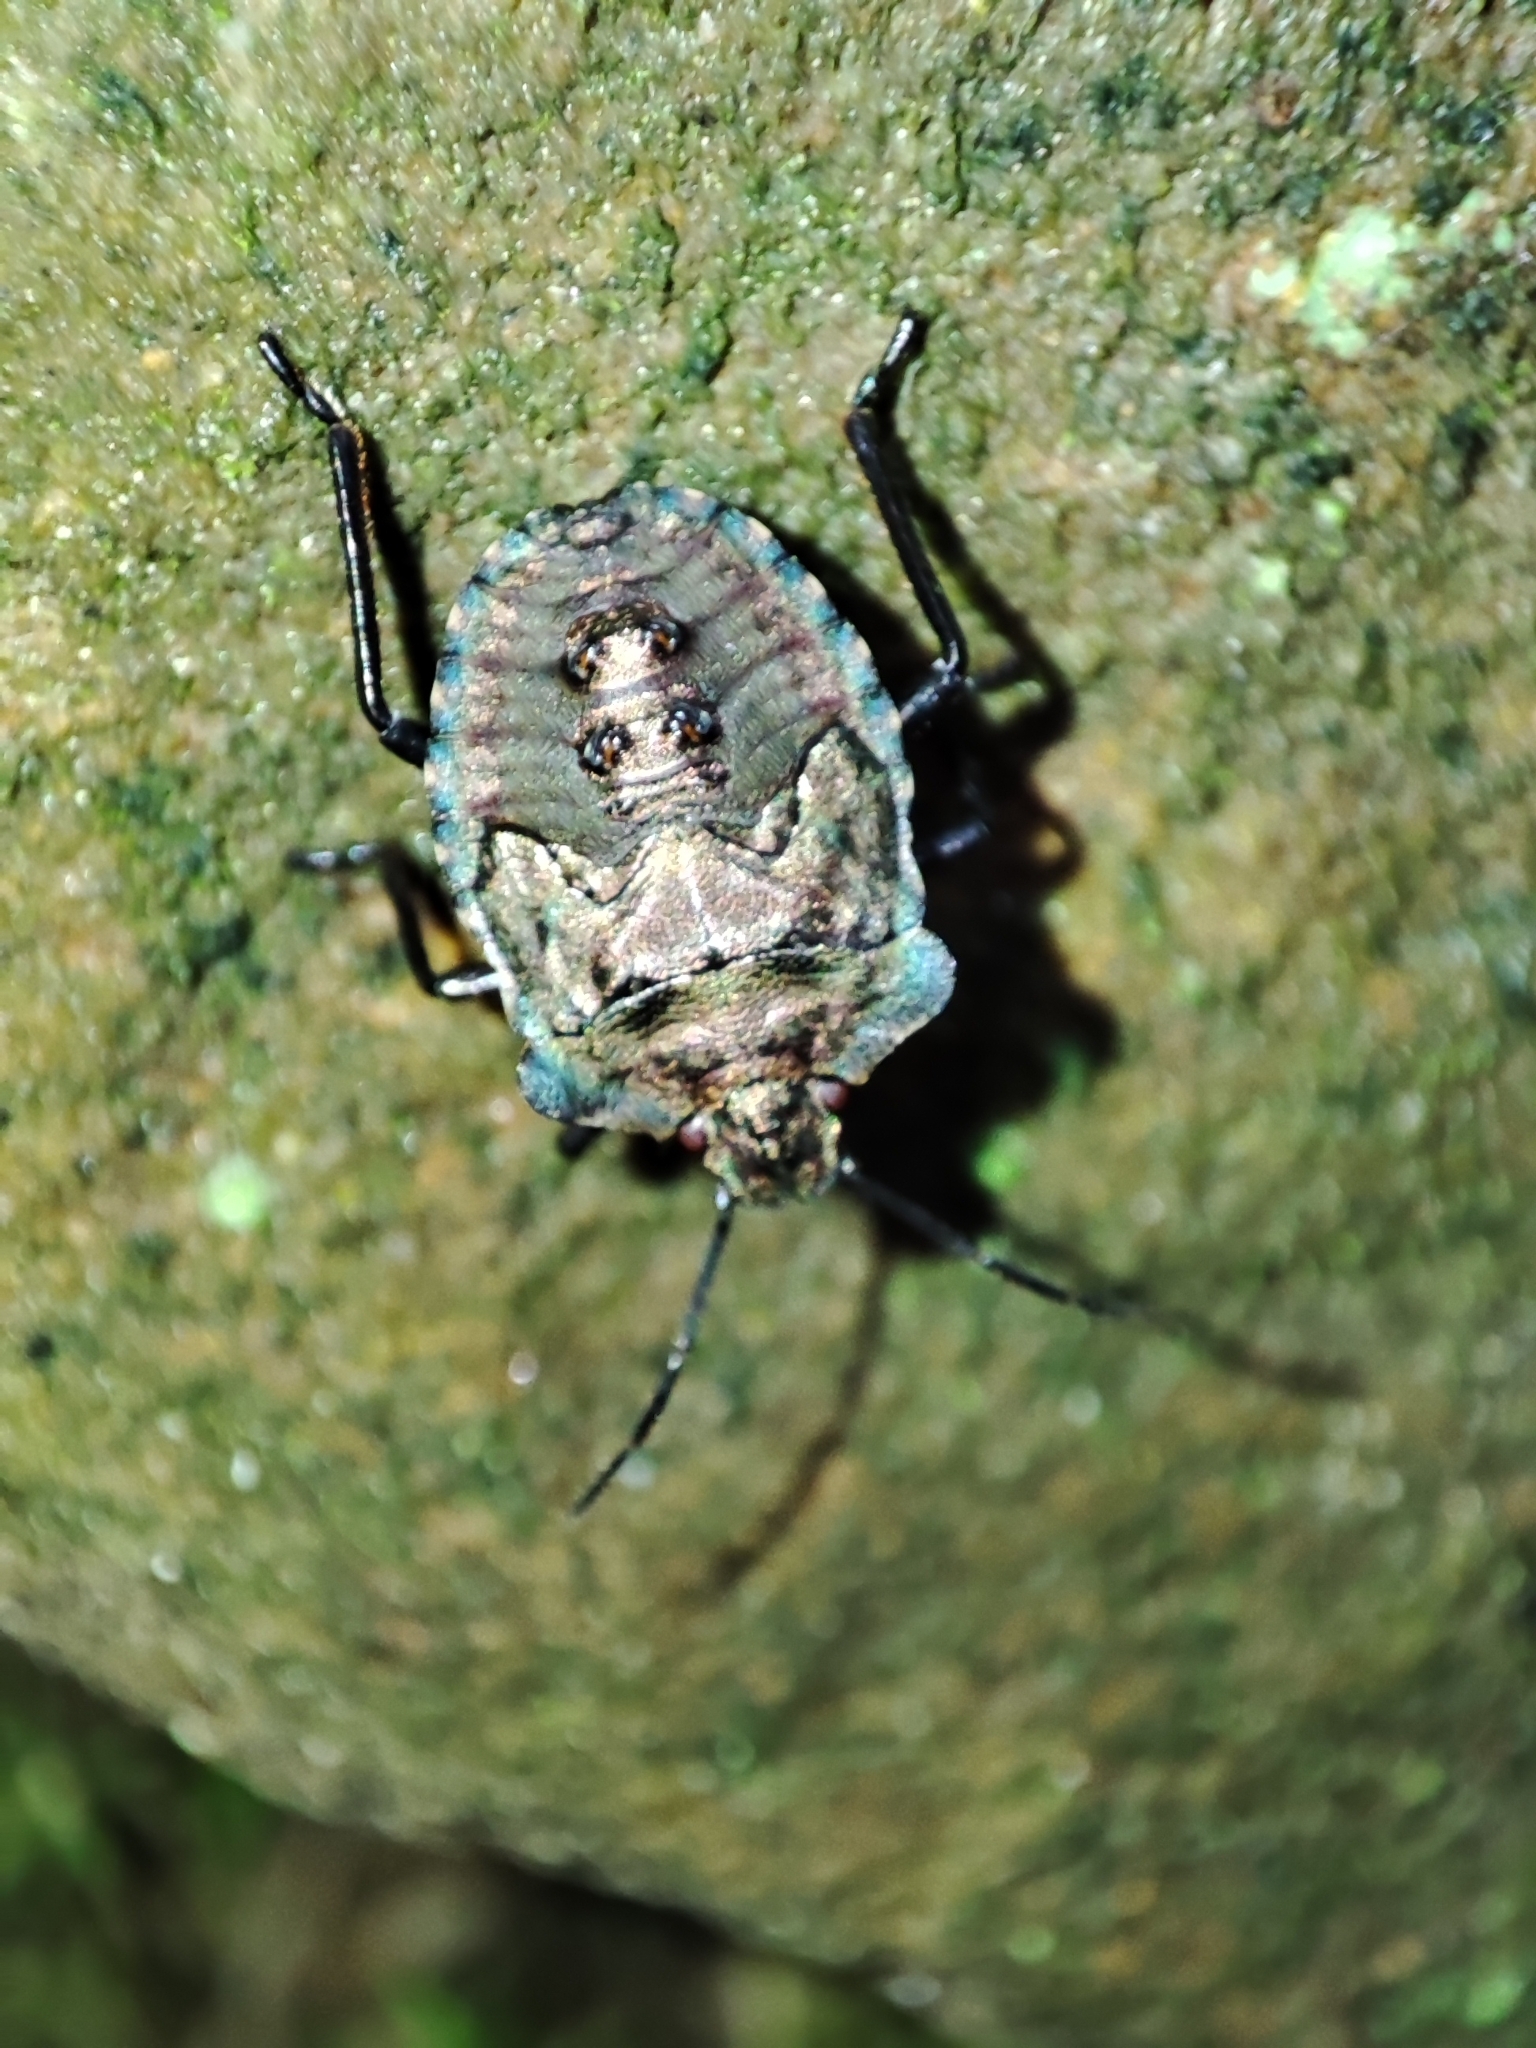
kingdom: Animalia
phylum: Arthropoda
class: Insecta
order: Hemiptera
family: Pentatomidae
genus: Pentatoma
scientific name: Pentatoma rufipes
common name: Forest bug
